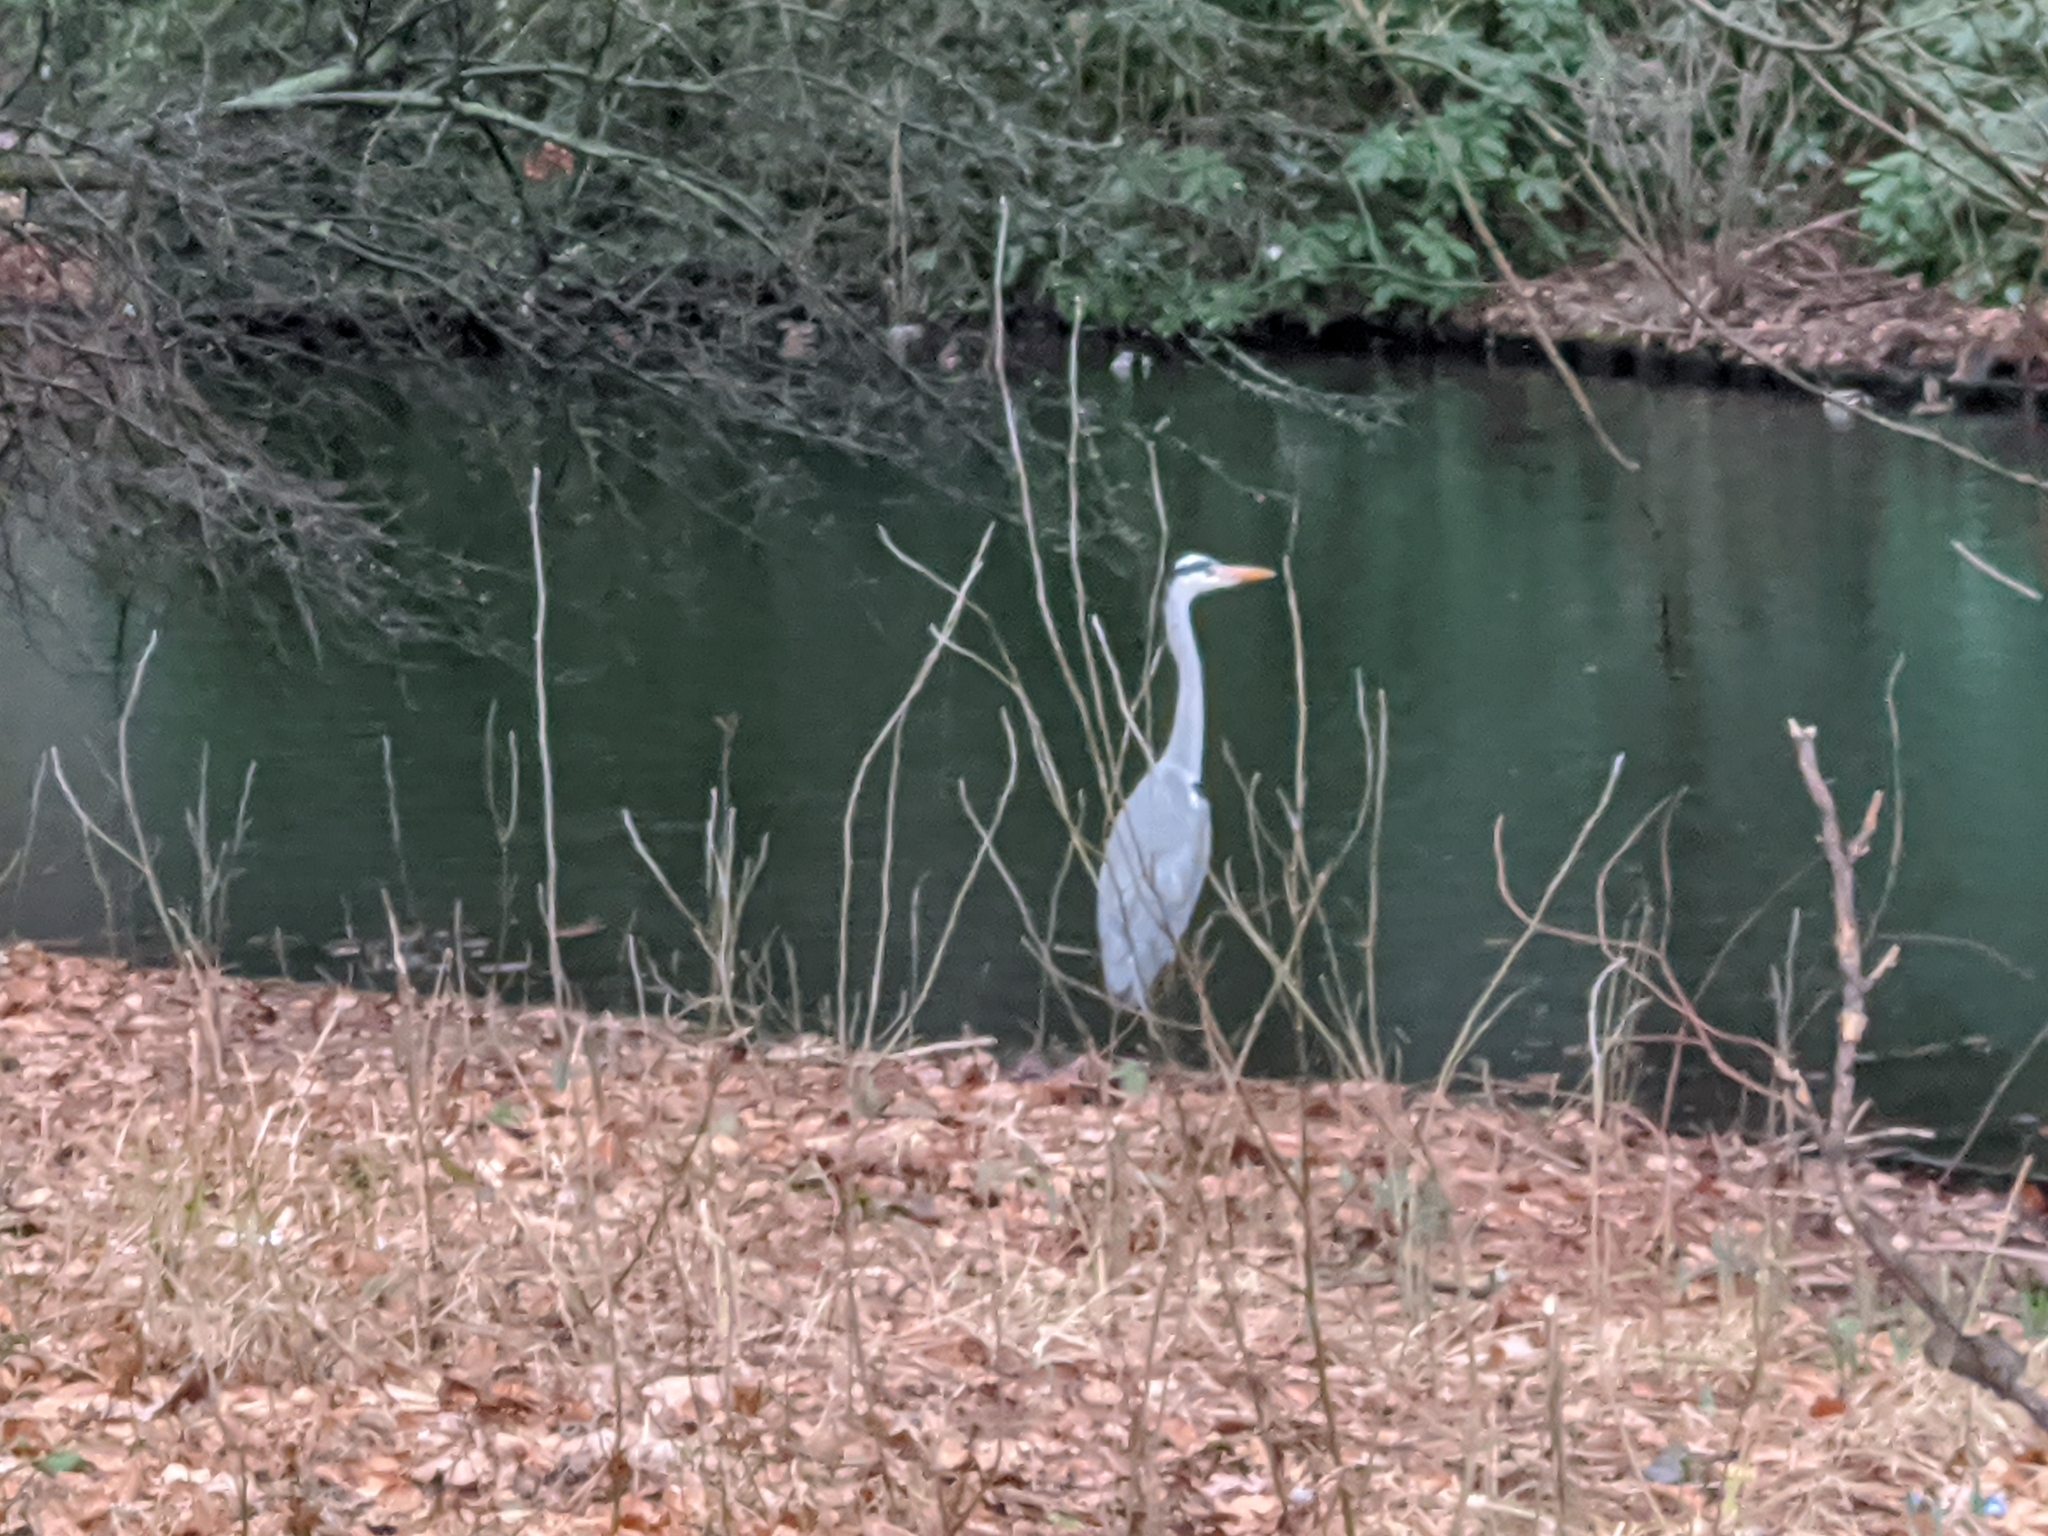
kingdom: Animalia
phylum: Chordata
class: Aves
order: Pelecaniformes
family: Ardeidae
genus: Ardea
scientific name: Ardea cinerea
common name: Grey heron
